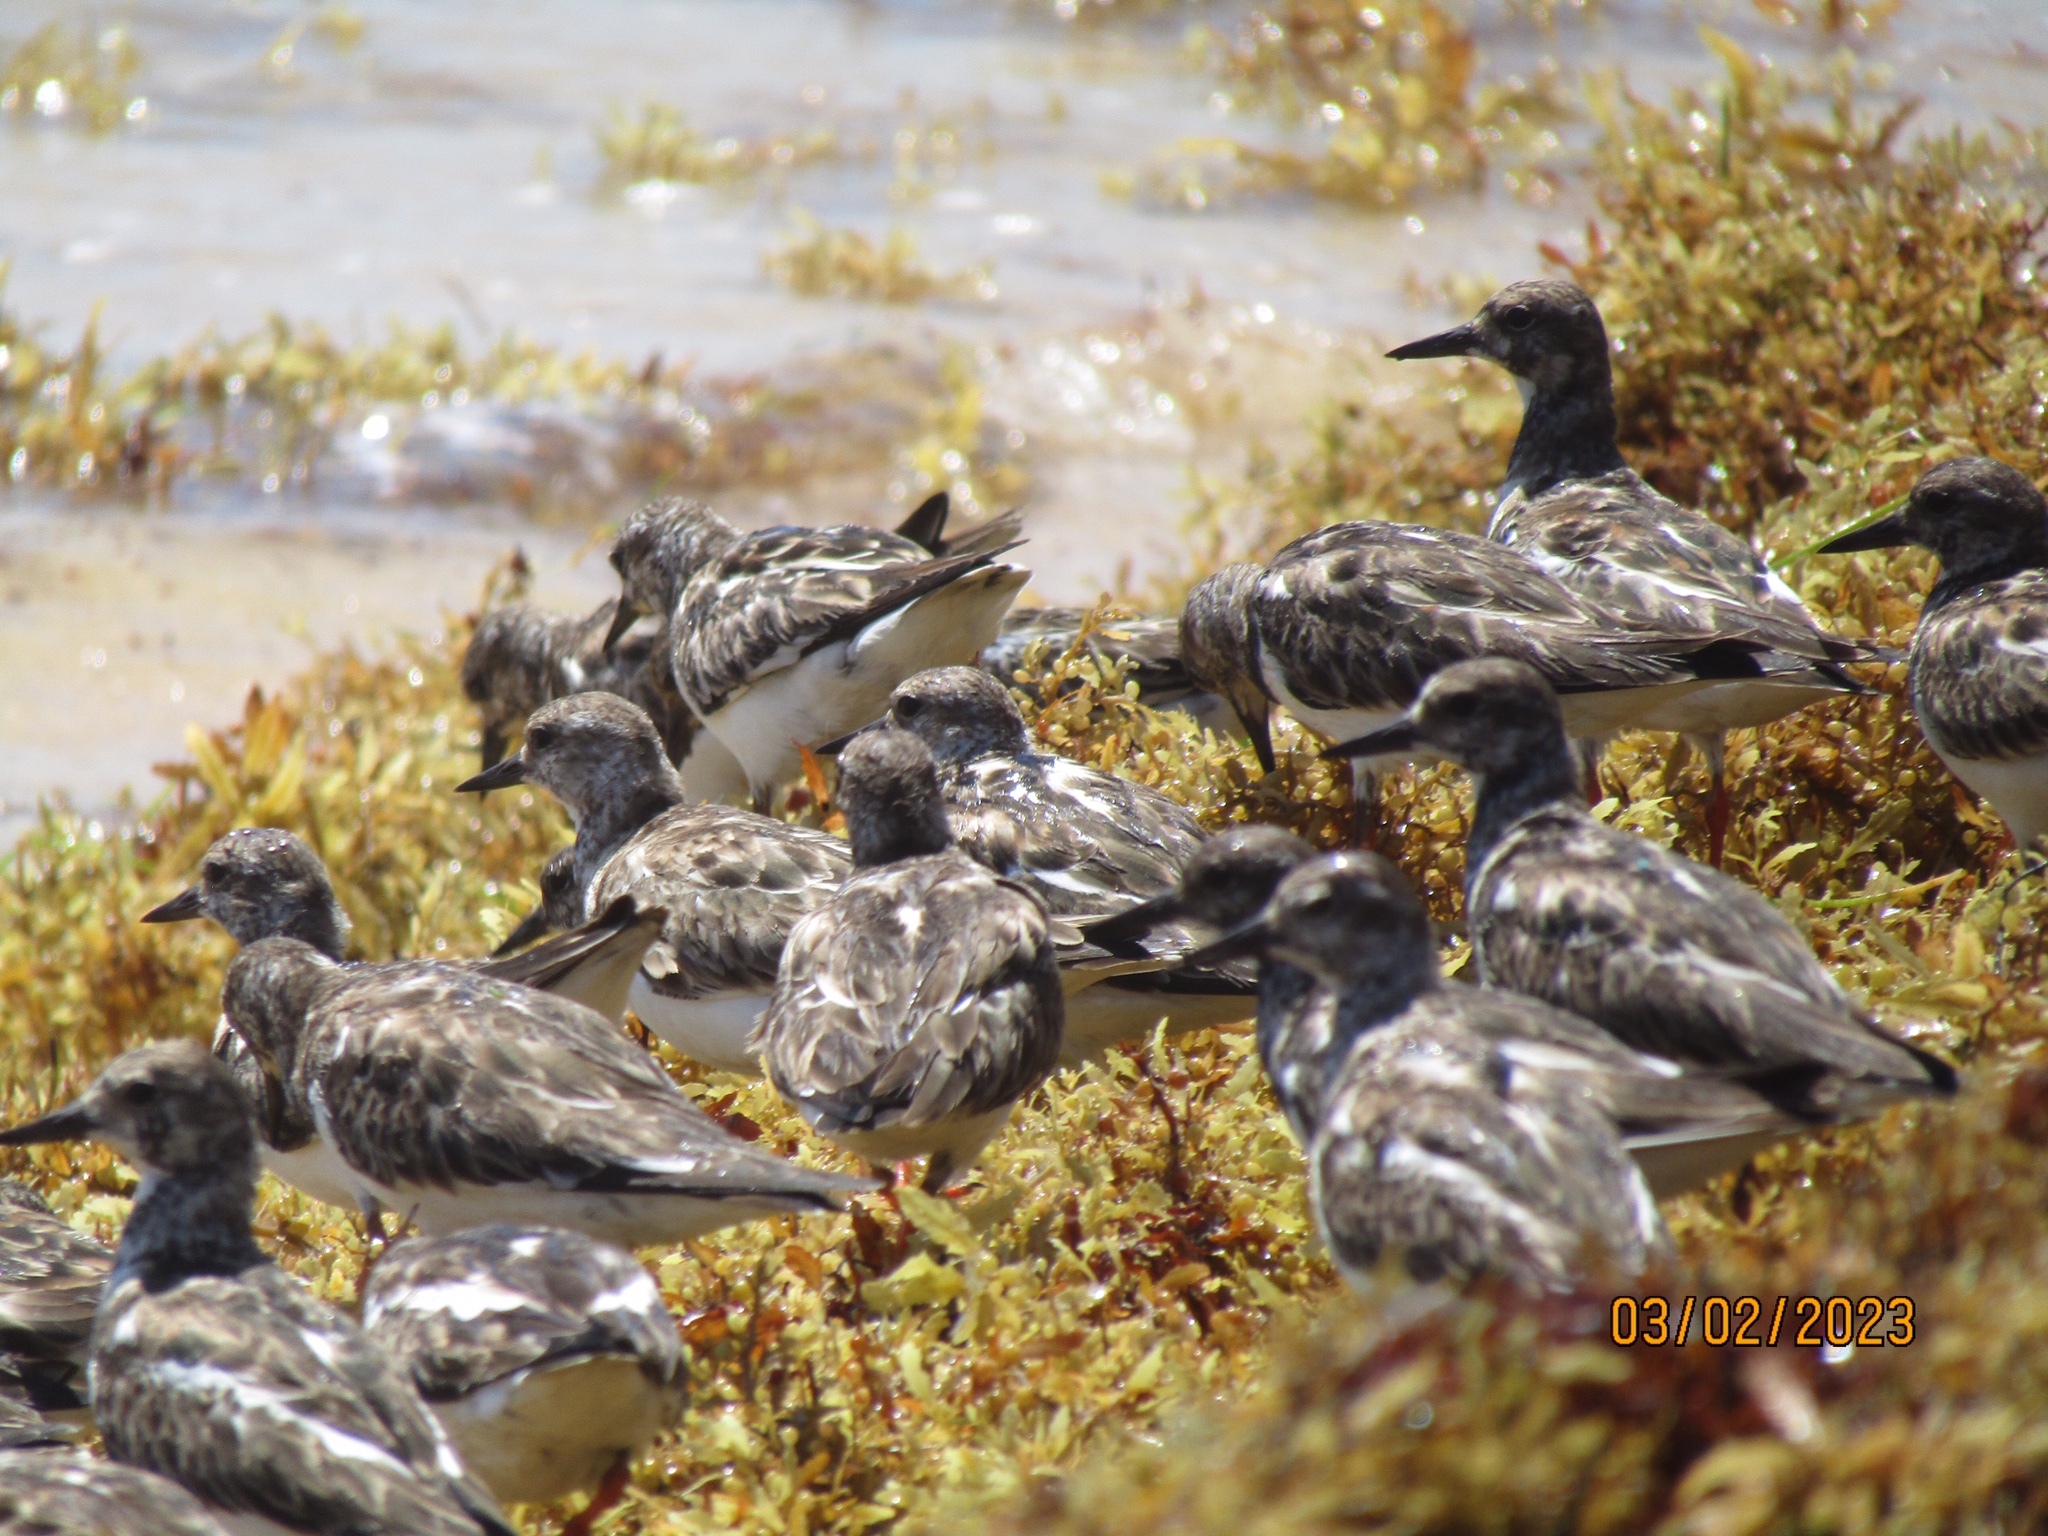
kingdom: Animalia
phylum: Chordata
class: Aves
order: Charadriiformes
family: Scolopacidae
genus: Arenaria
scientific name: Arenaria interpres
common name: Ruddy turnstone
